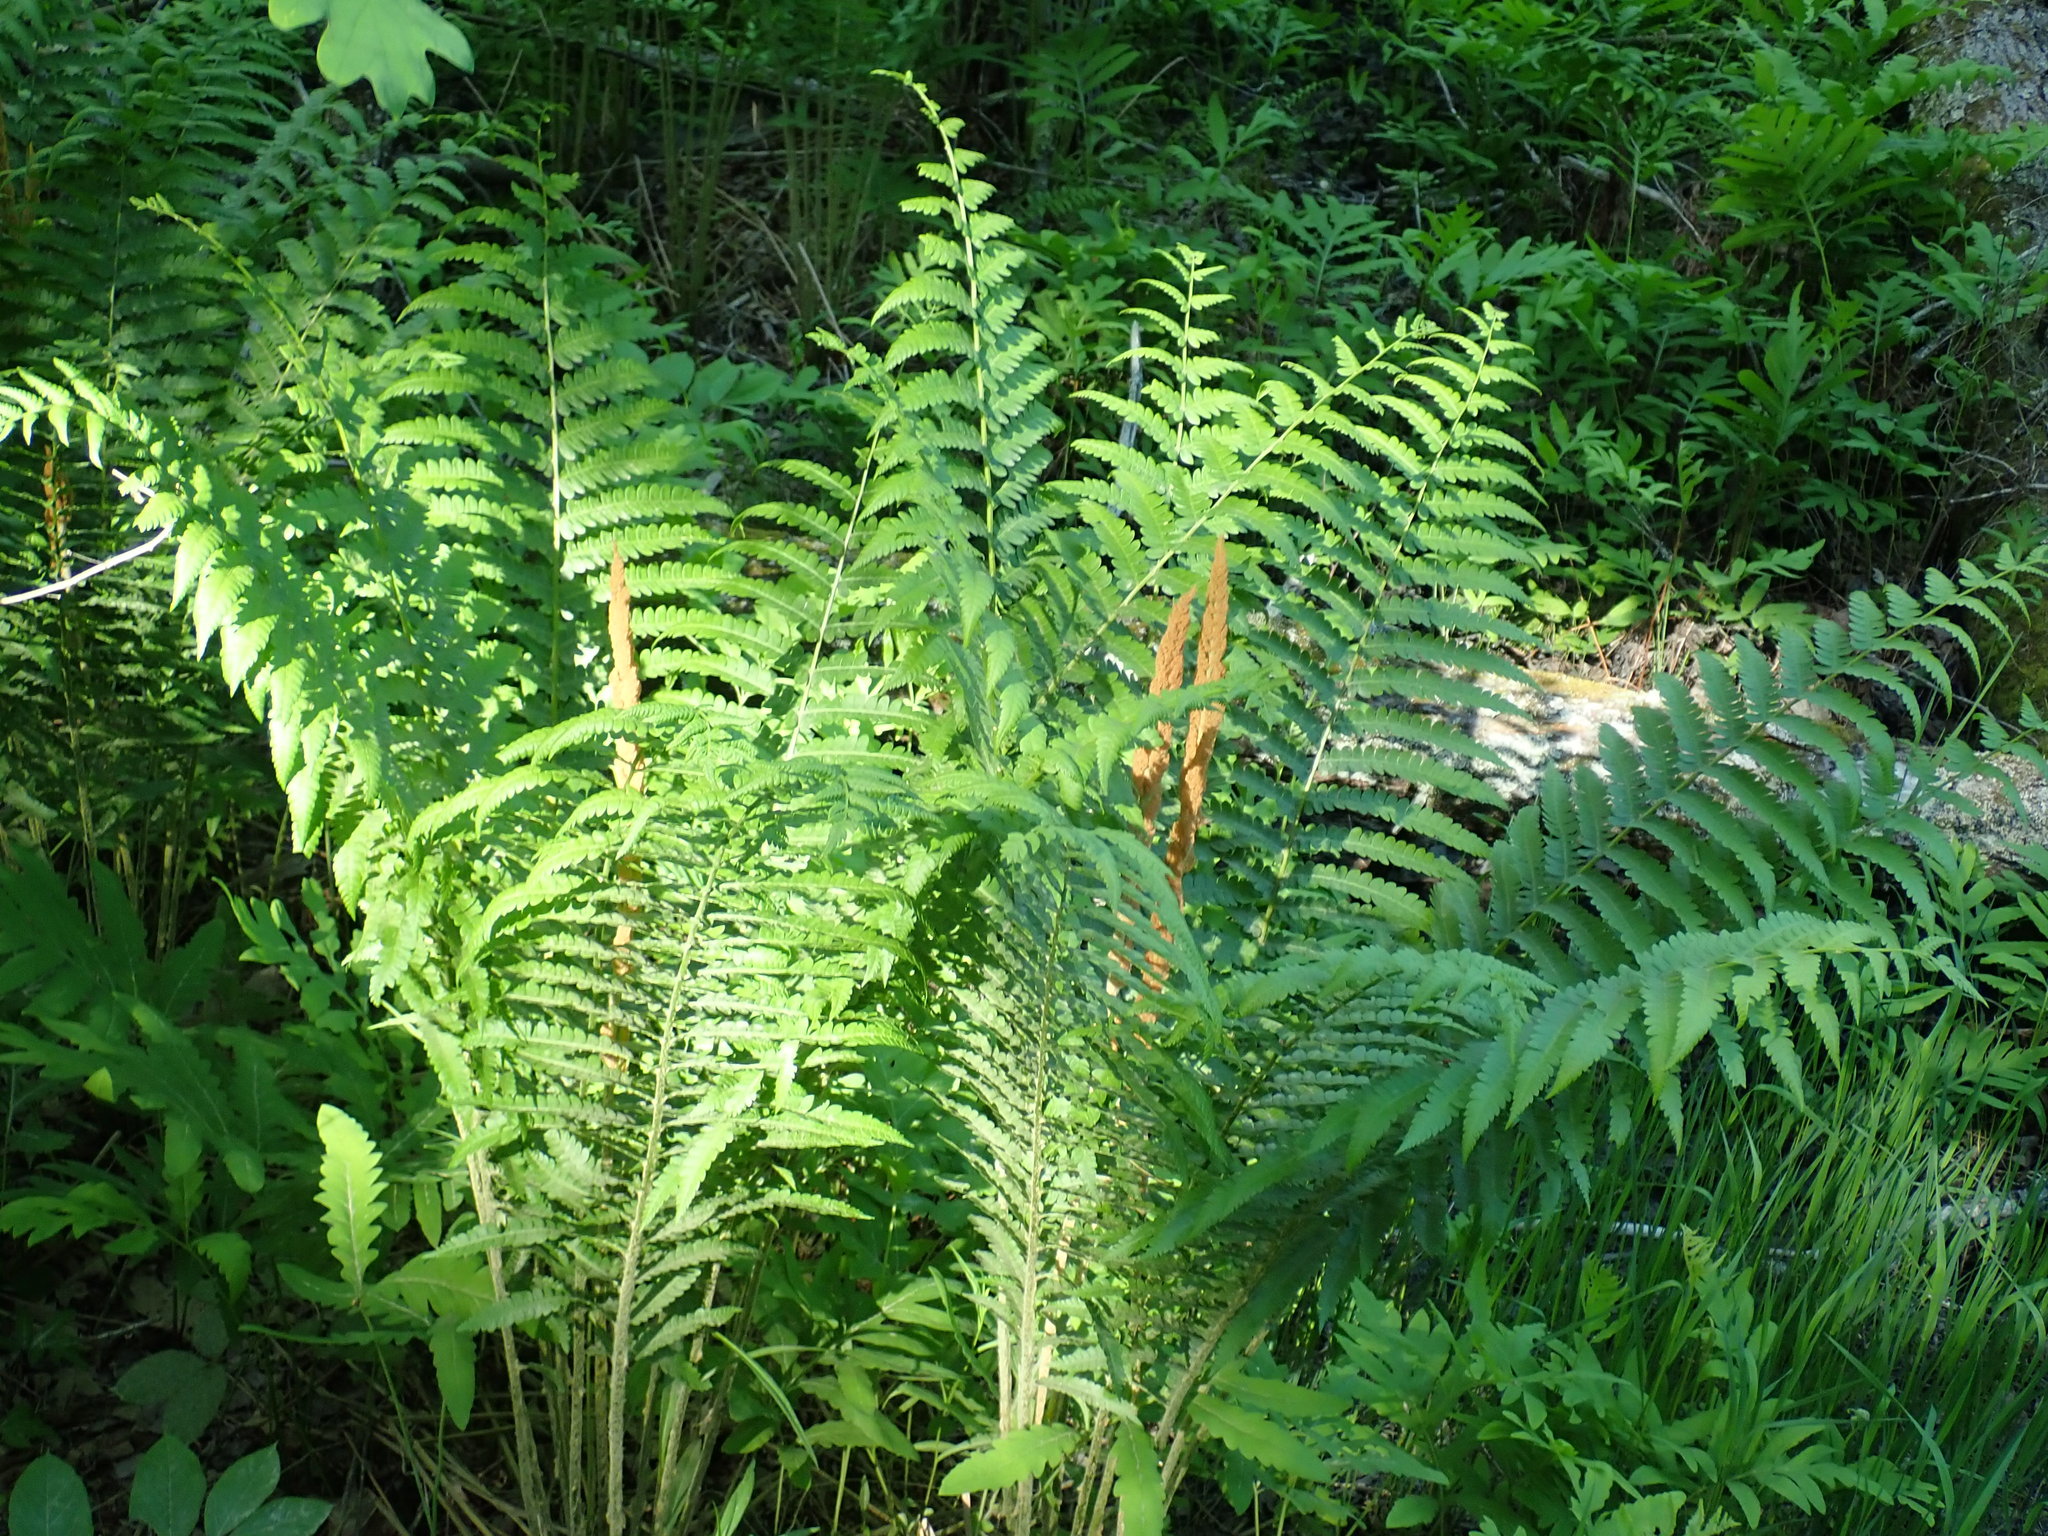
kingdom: Plantae
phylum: Tracheophyta
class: Polypodiopsida
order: Osmundales
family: Osmundaceae
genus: Osmundastrum
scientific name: Osmundastrum cinnamomeum
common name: Cinnamon fern
